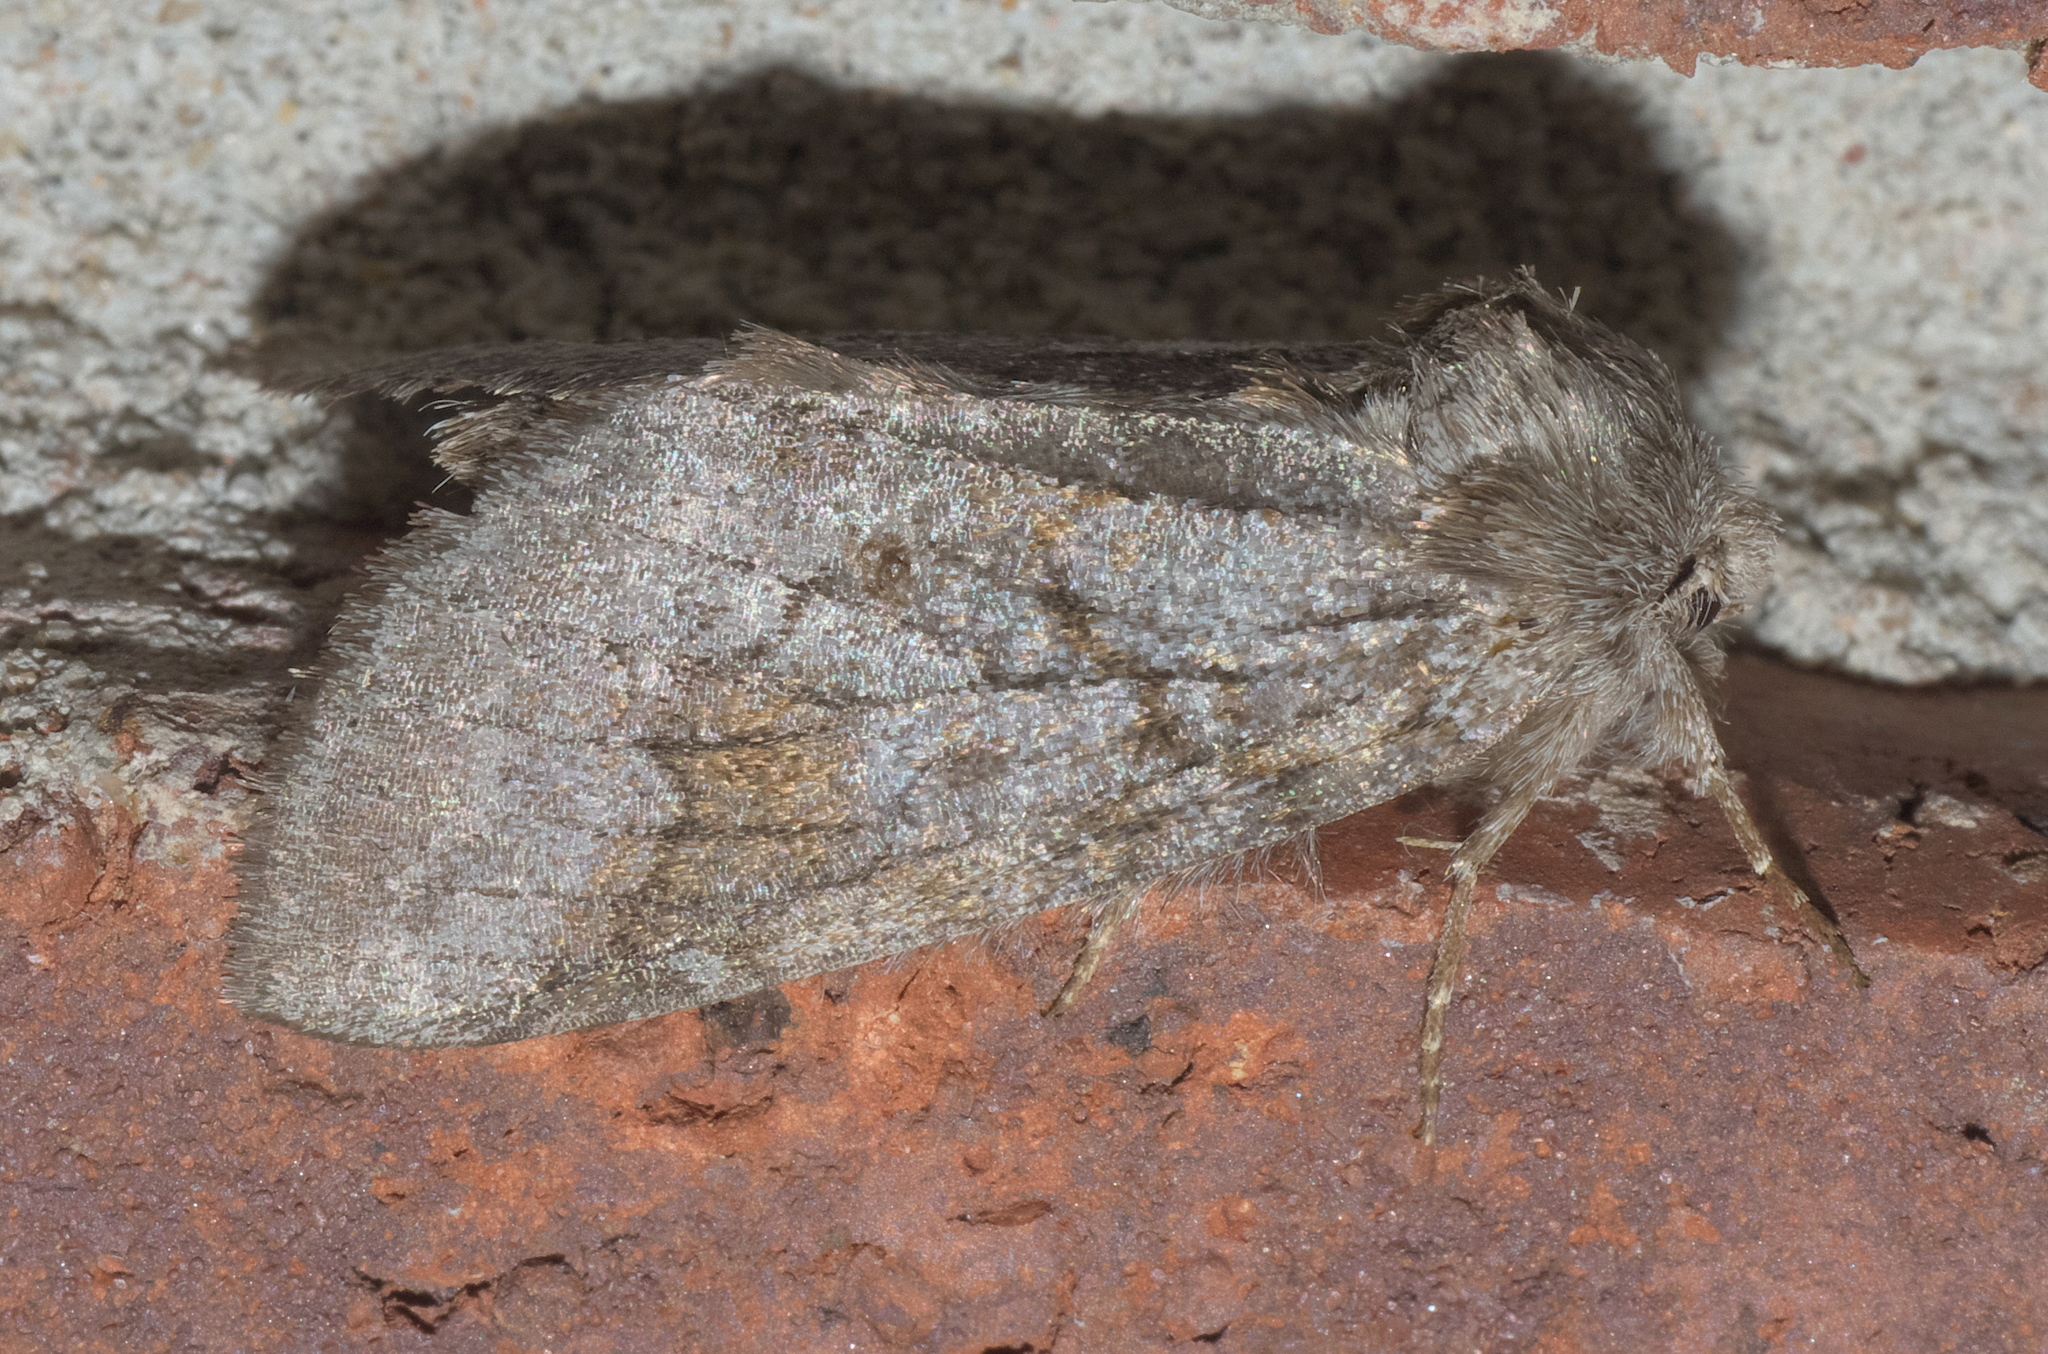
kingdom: Animalia
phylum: Arthropoda
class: Insecta
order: Lepidoptera
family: Notodontidae
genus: Lochmaeus
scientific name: Lochmaeus bilineata
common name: Double-lined prominent
